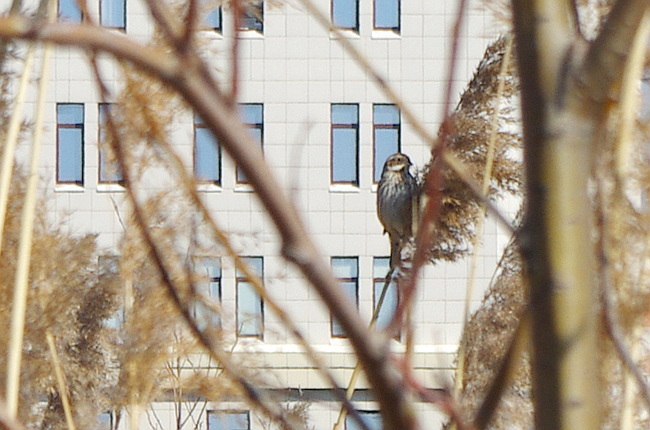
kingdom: Animalia
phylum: Chordata
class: Aves
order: Passeriformes
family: Emberizidae
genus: Emberiza
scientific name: Emberiza schoeniclus
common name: Reed bunting
